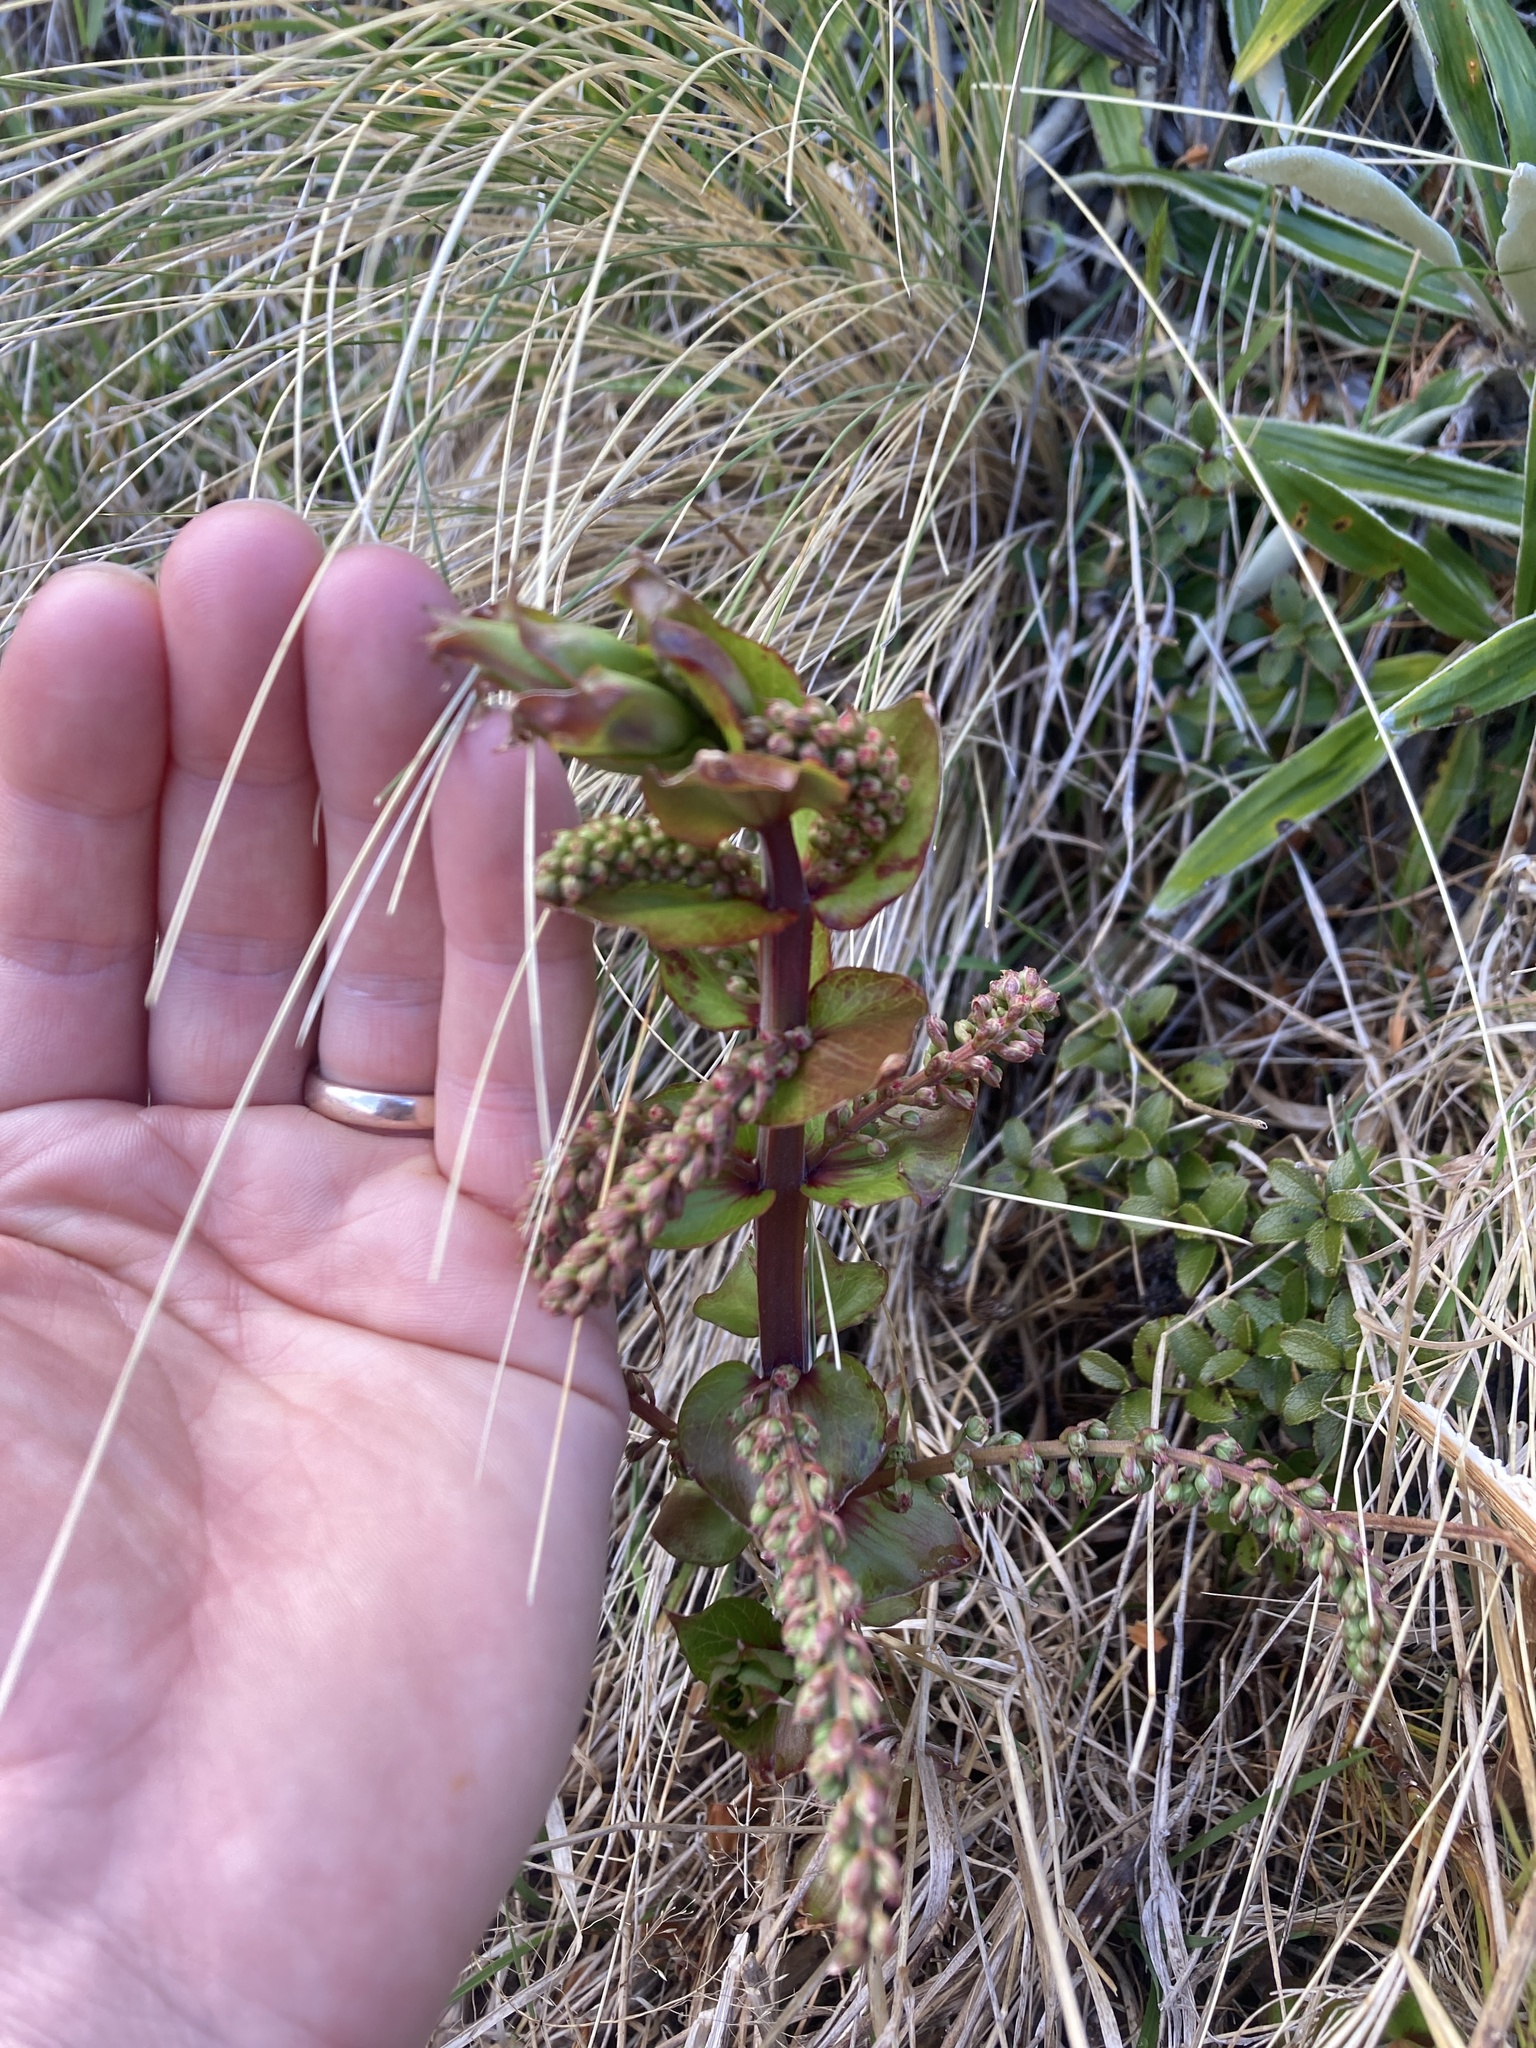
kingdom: Plantae
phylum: Tracheophyta
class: Magnoliopsida
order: Cucurbitales
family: Coriariaceae
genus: Coriaria
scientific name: Coriaria sarmentosa
